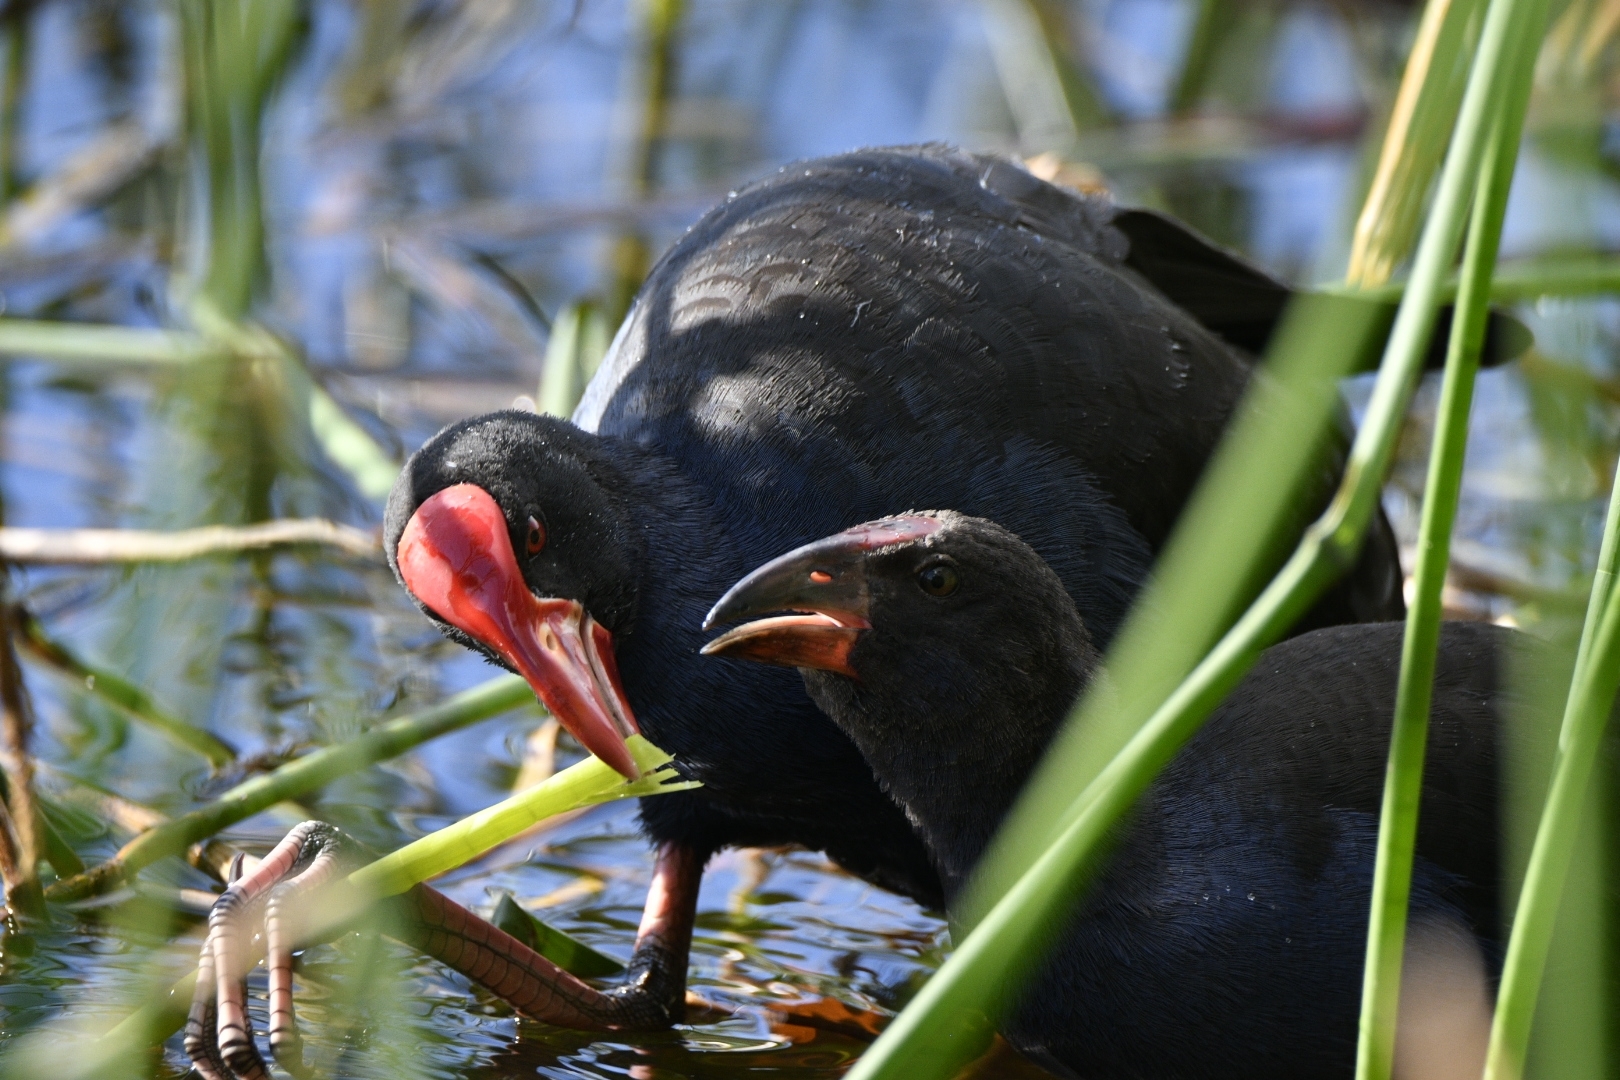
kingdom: Animalia
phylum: Chordata
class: Aves
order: Gruiformes
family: Rallidae
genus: Porphyrio
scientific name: Porphyrio melanotus
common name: Australasian swamphen
